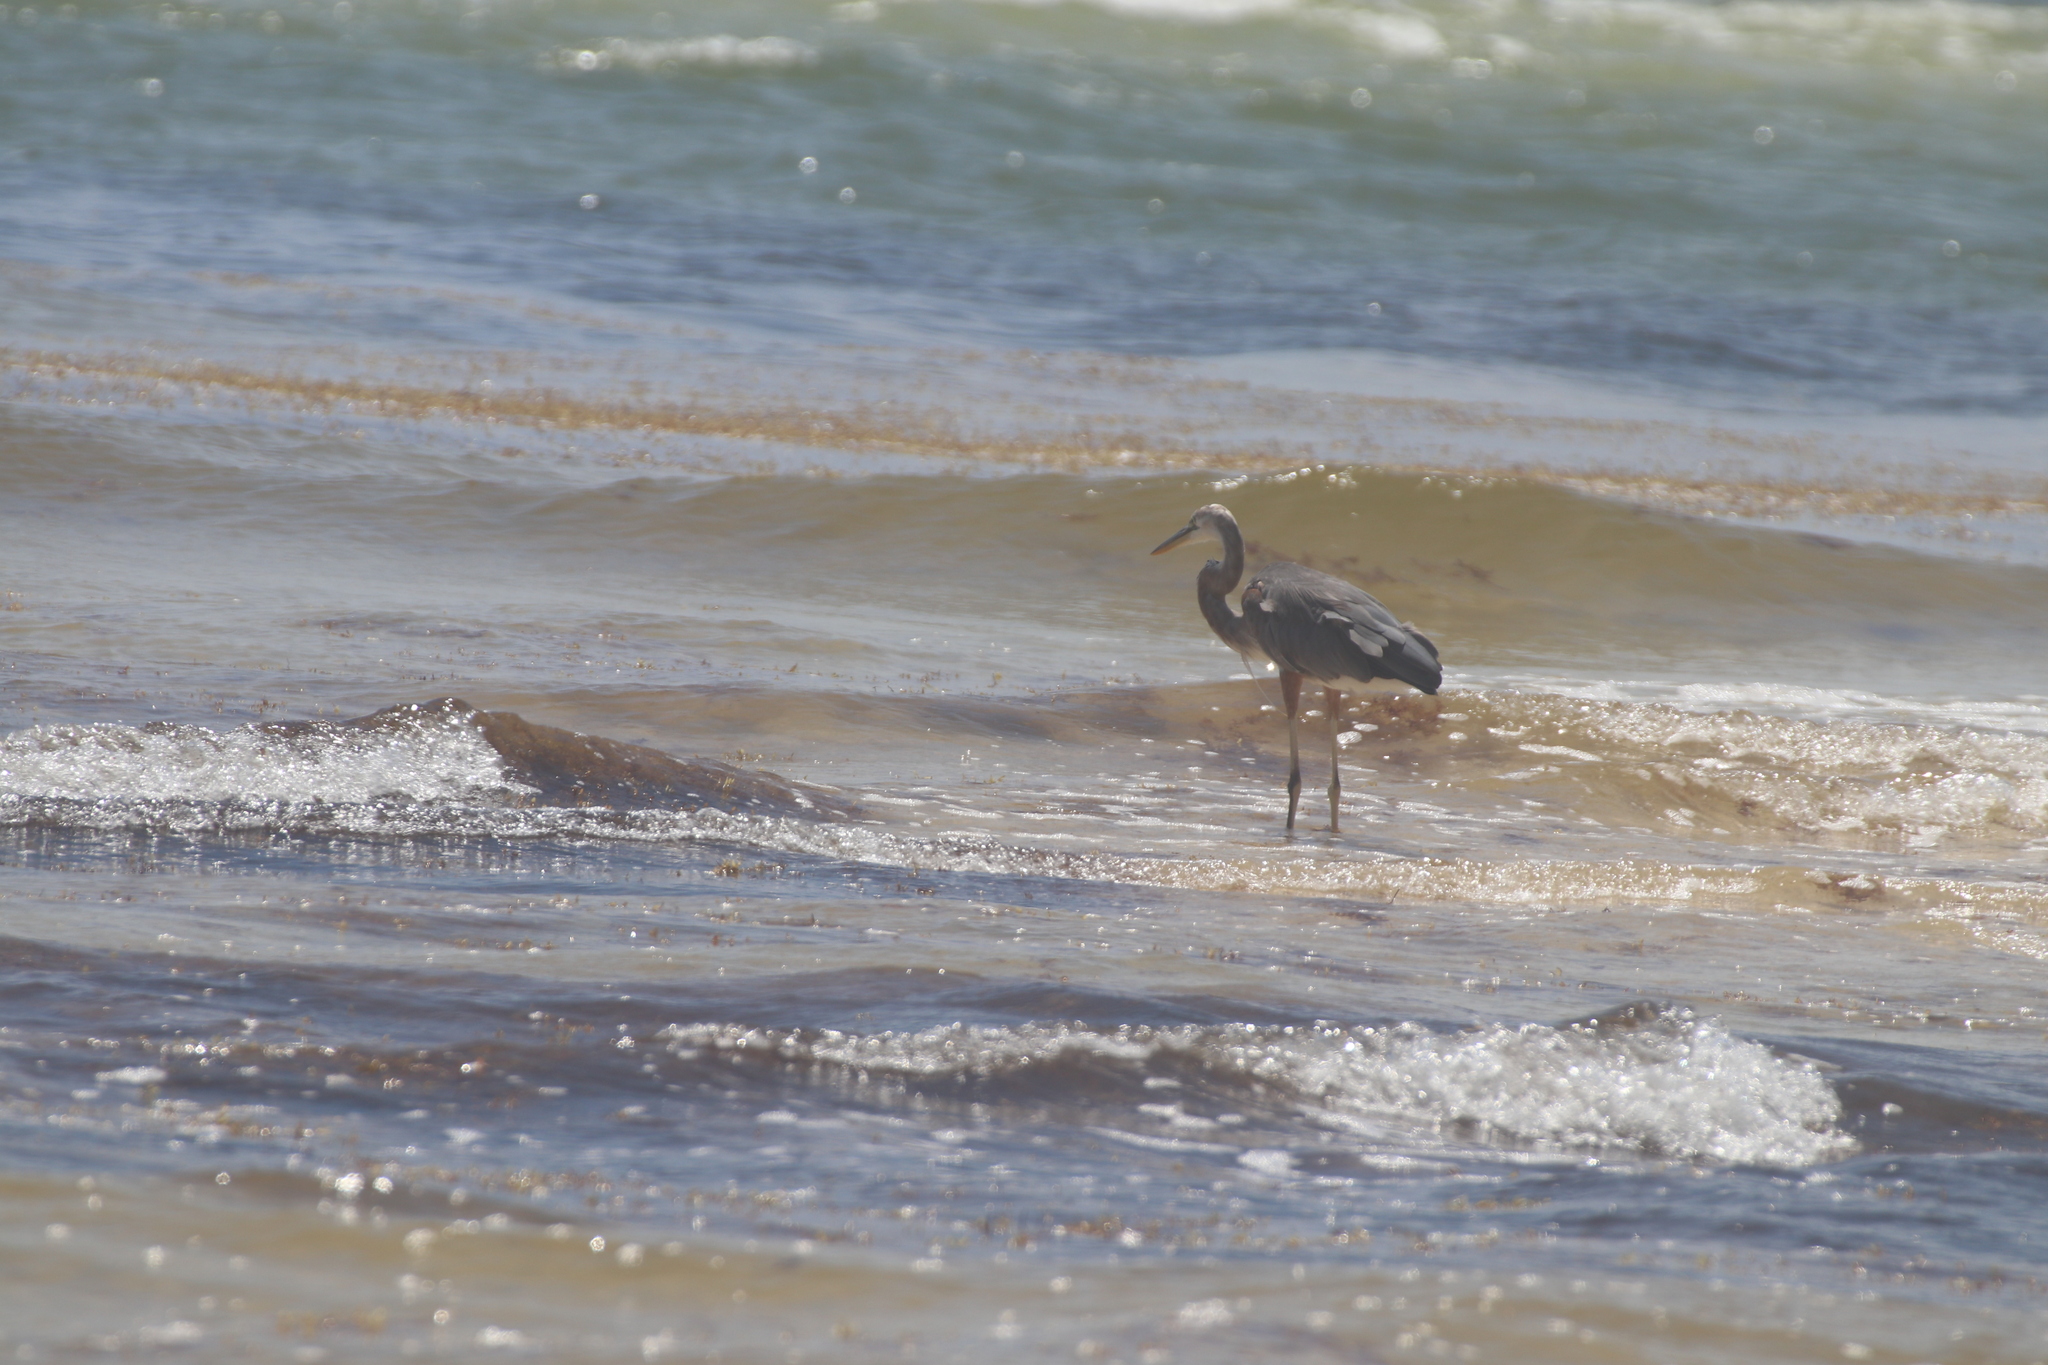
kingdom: Animalia
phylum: Chordata
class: Aves
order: Pelecaniformes
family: Ardeidae
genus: Ardea
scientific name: Ardea herodias
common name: Great blue heron
